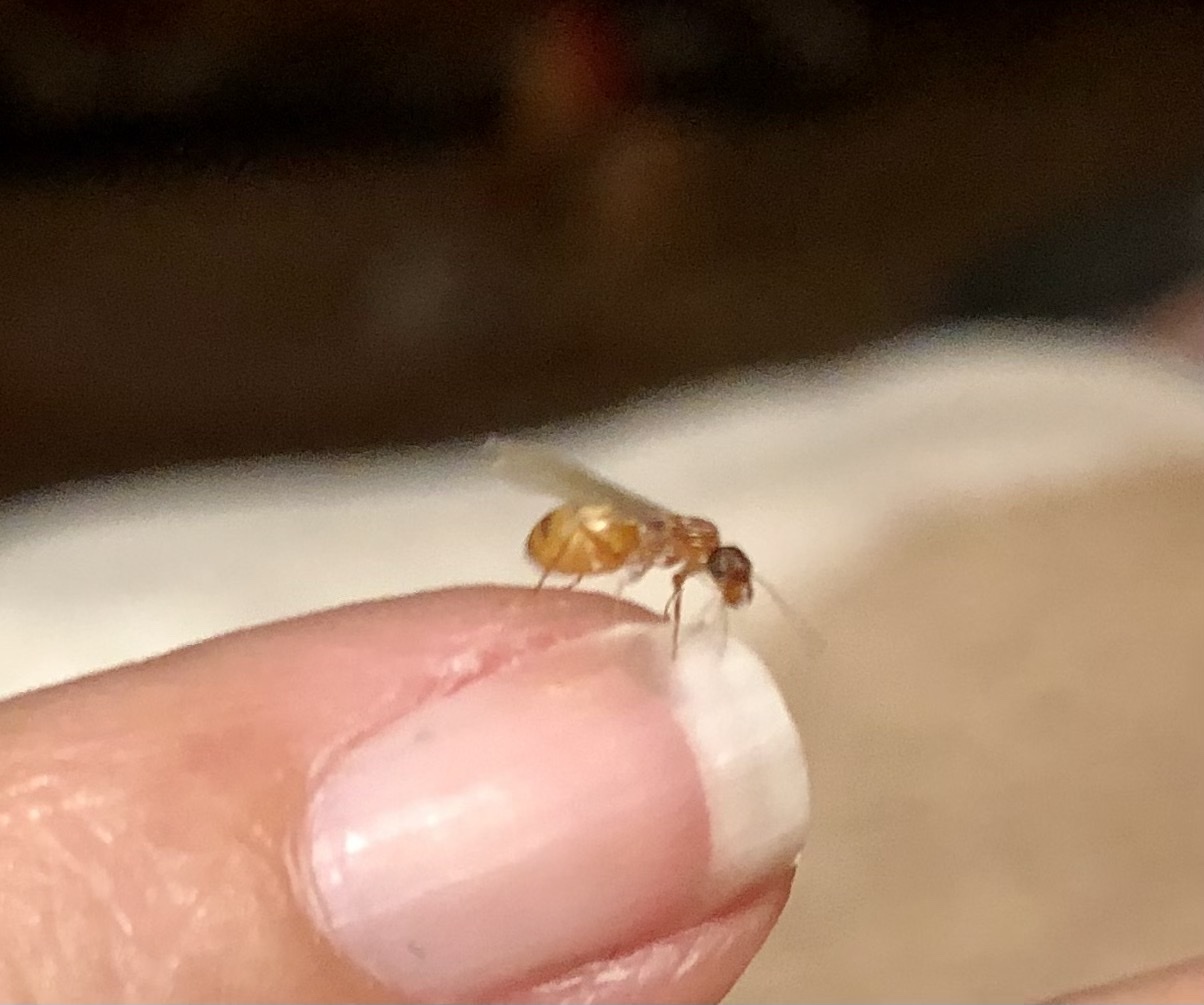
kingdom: Animalia
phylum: Arthropoda
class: Insecta
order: Hymenoptera
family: Formicidae
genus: Dorymyrmex
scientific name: Dorymyrmex flavus
